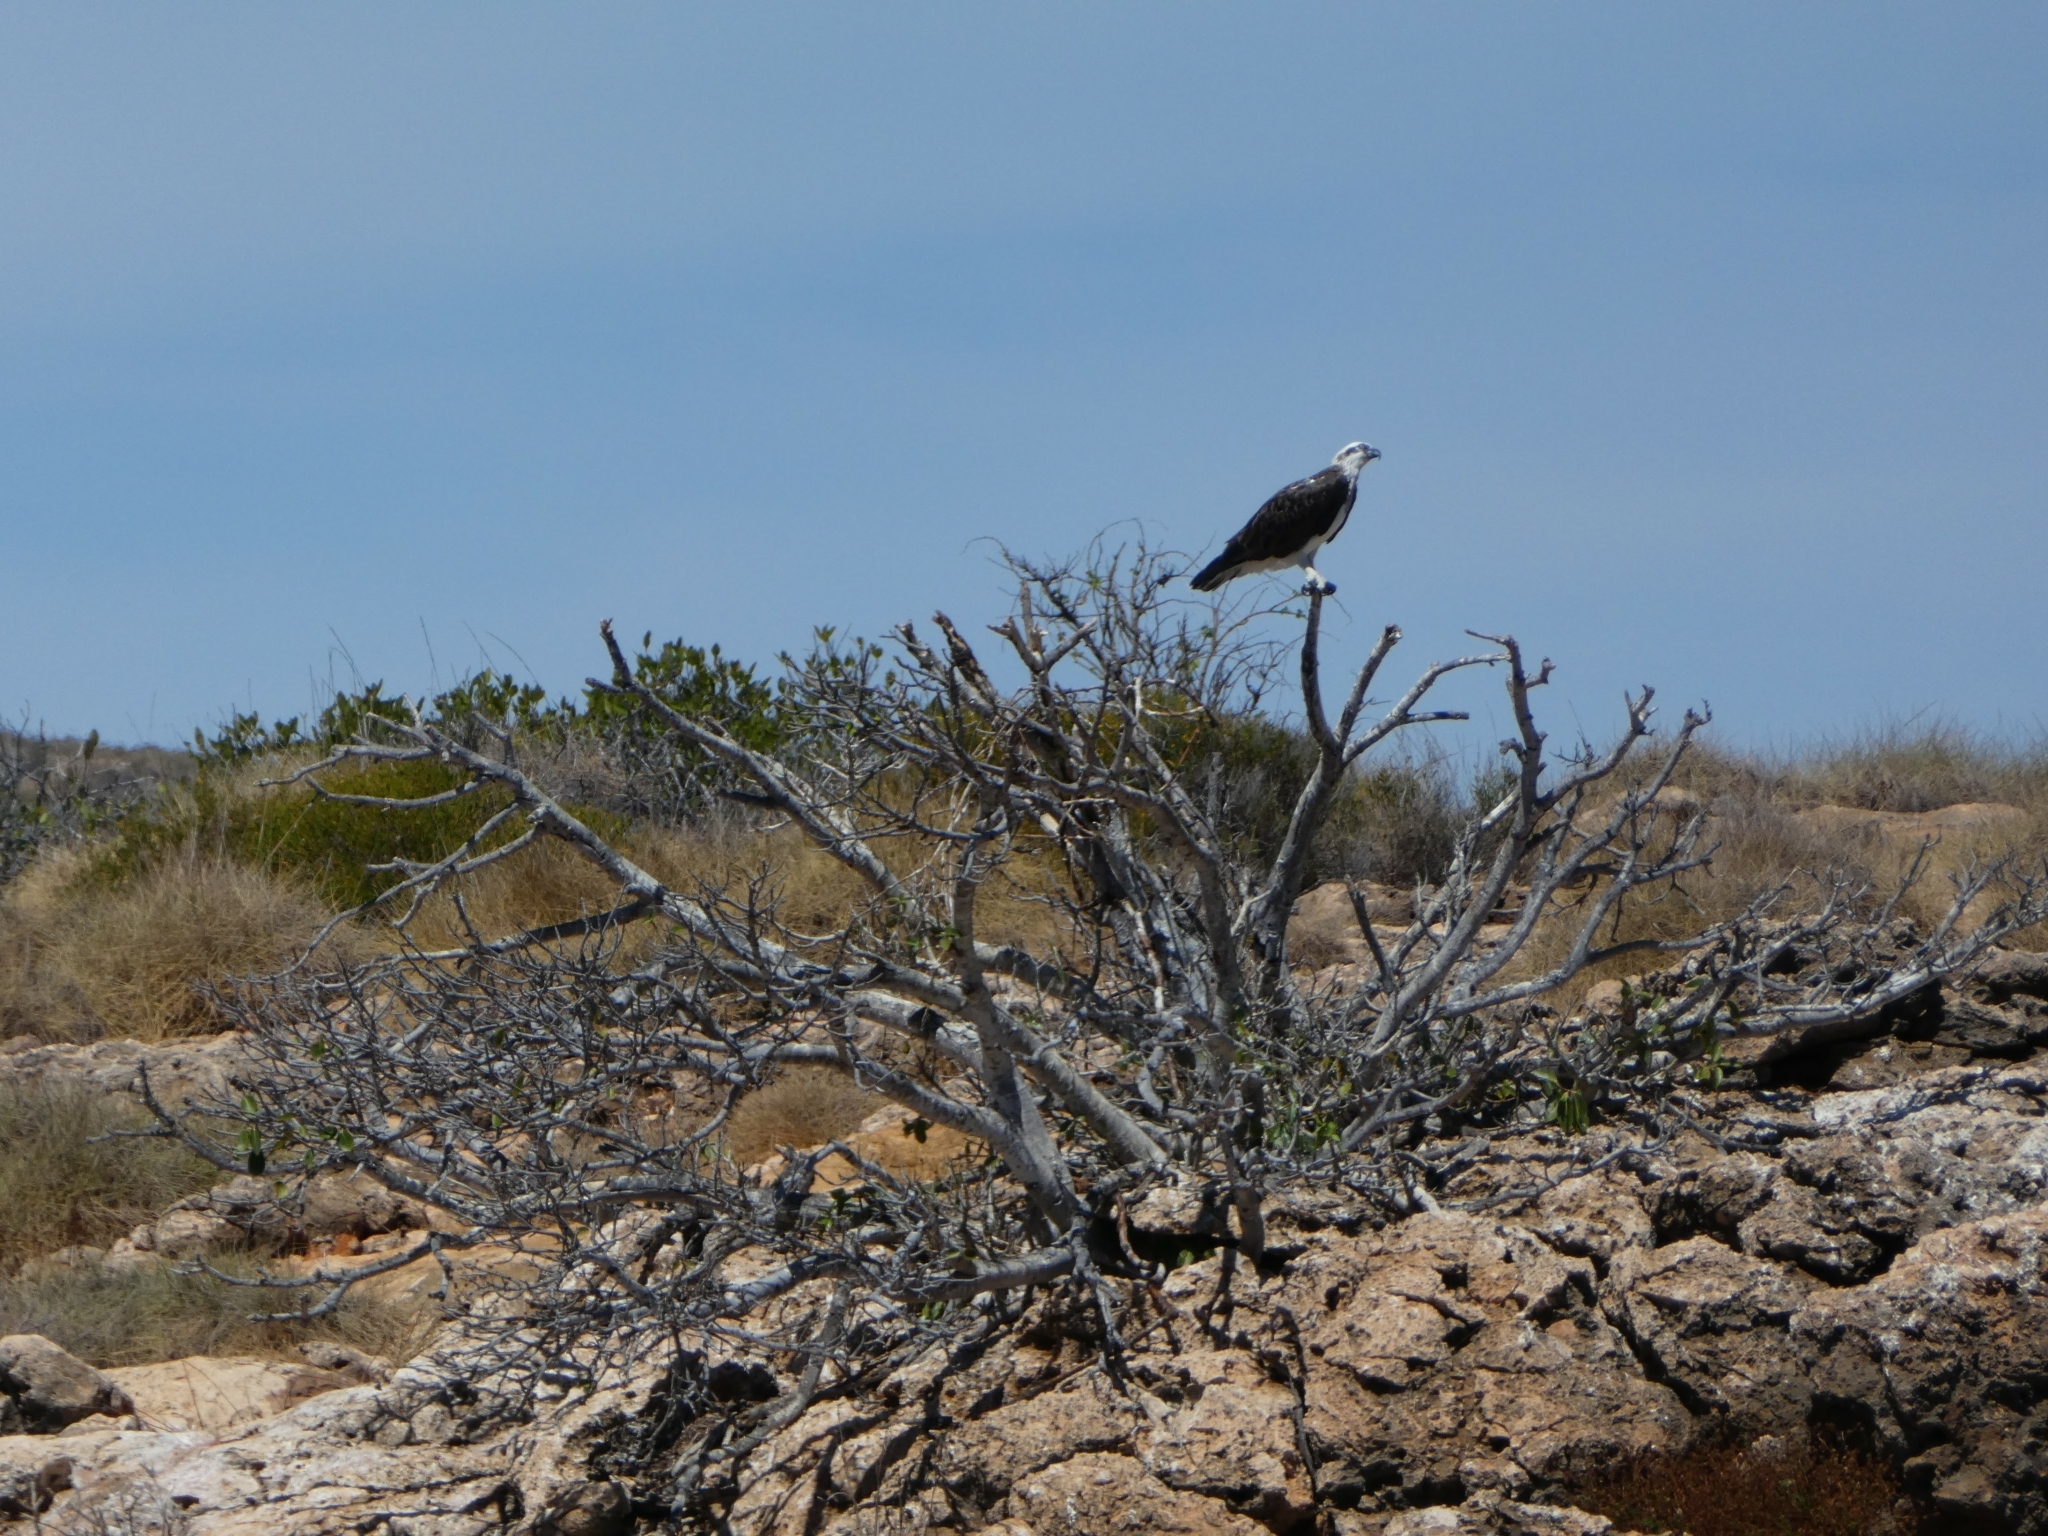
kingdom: Animalia
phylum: Chordata
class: Aves
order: Accipitriformes
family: Pandionidae
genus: Pandion
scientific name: Pandion haliaetus
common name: Osprey
